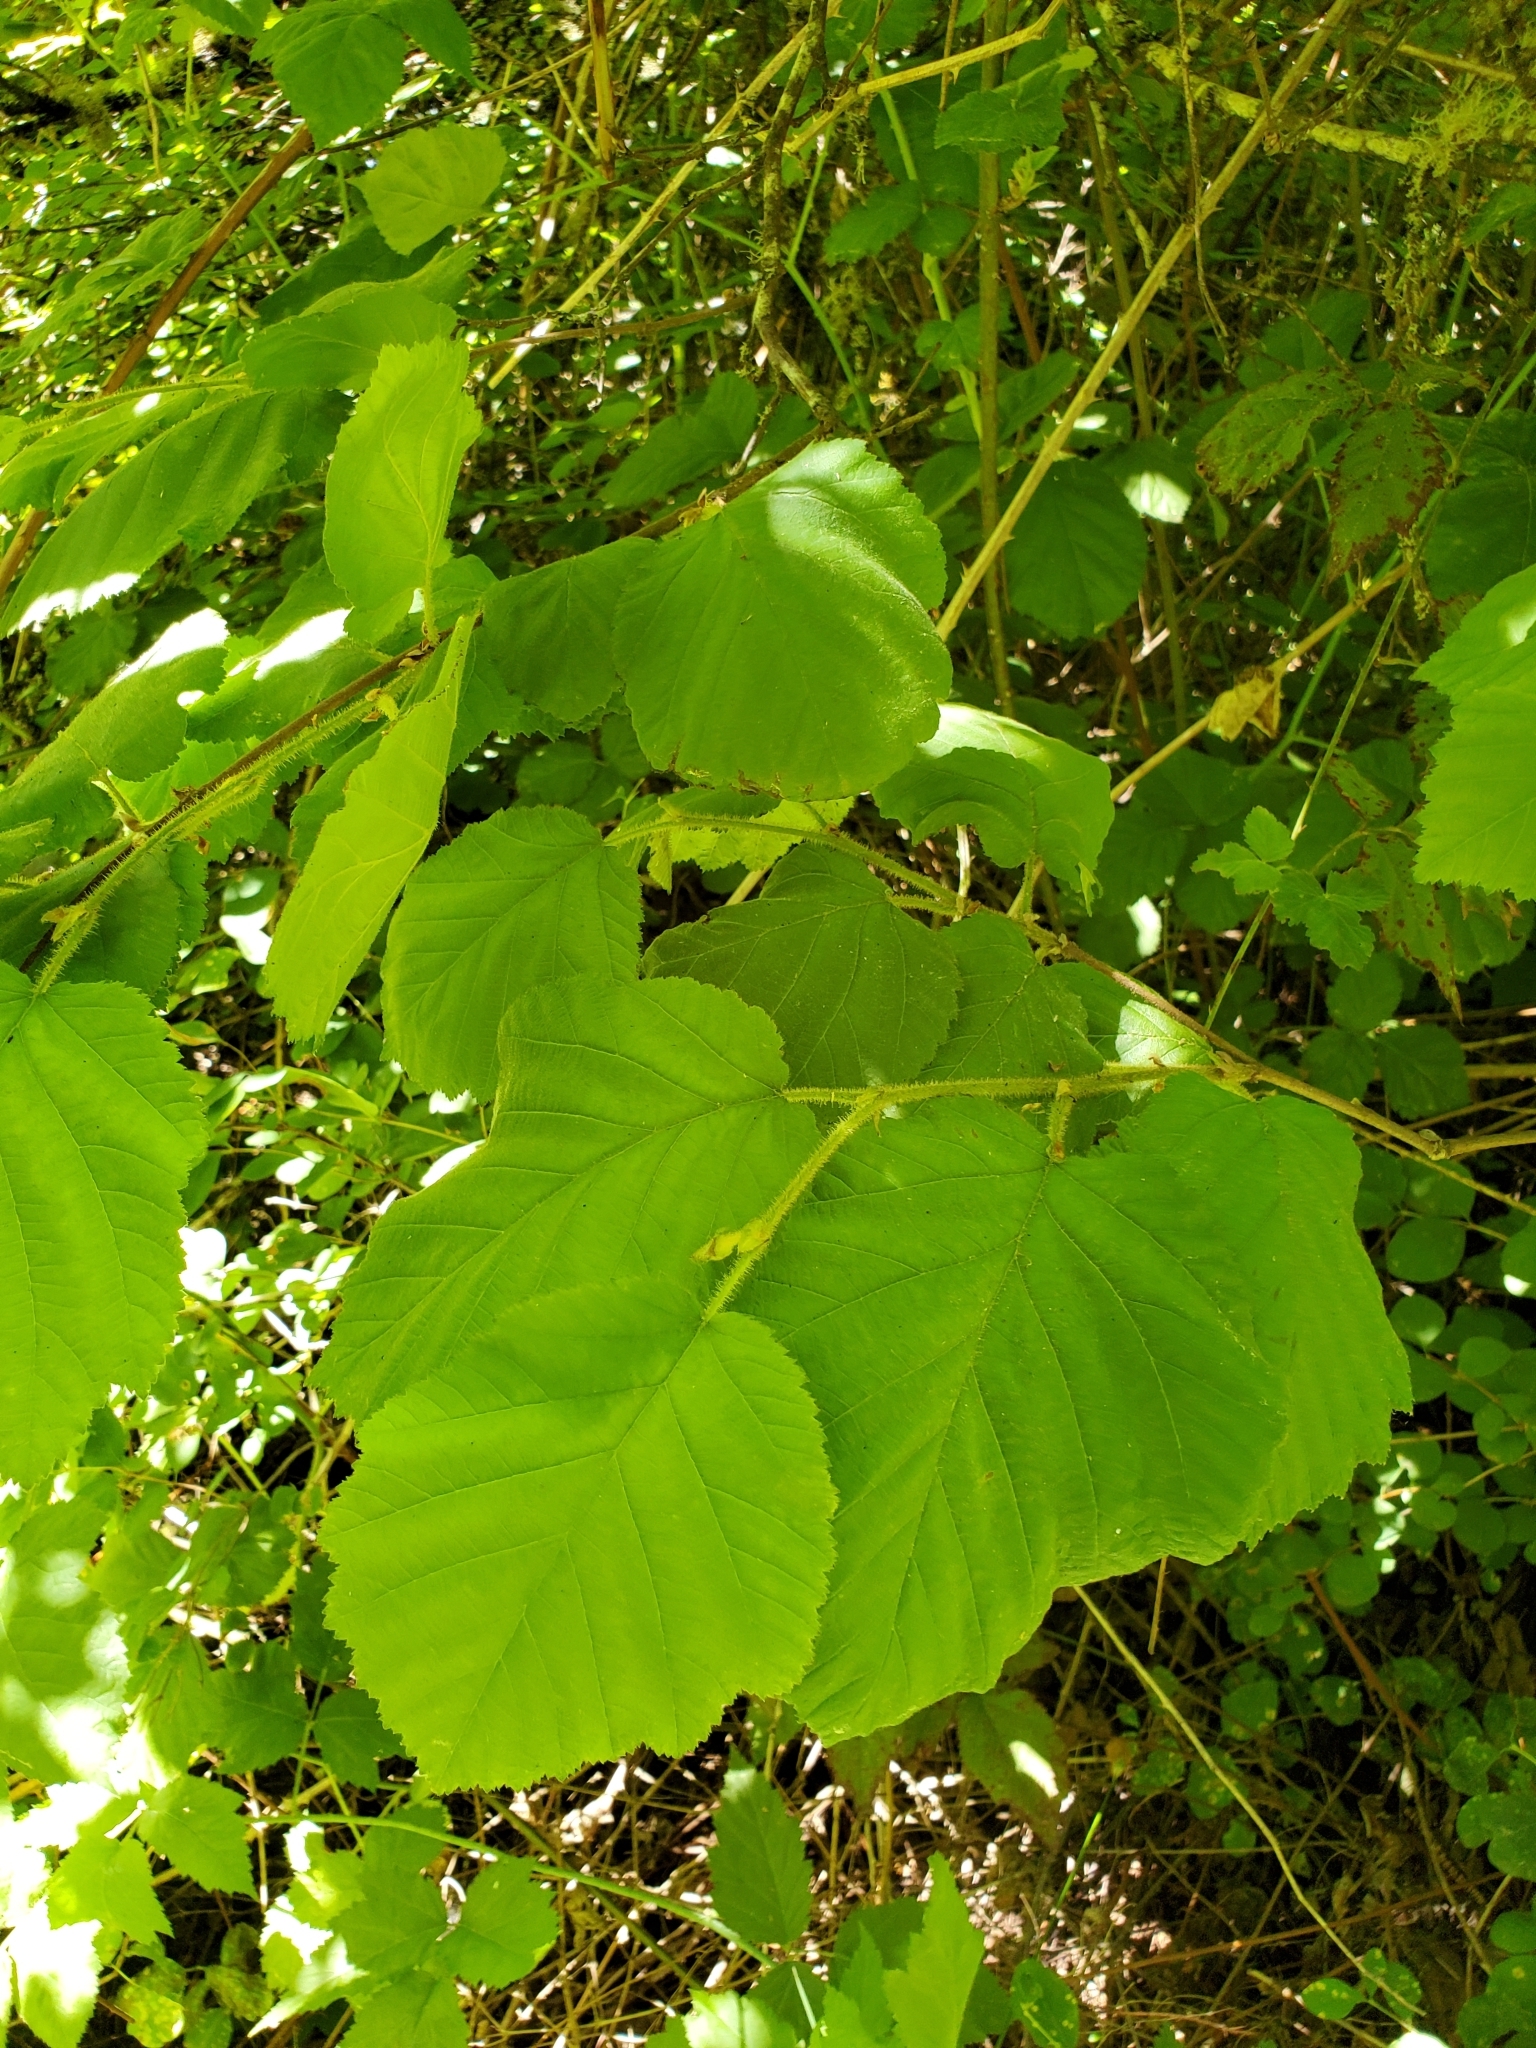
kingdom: Plantae
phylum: Tracheophyta
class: Magnoliopsida
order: Fagales
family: Betulaceae
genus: Corylus
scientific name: Corylus cornuta
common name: Beaked hazel
